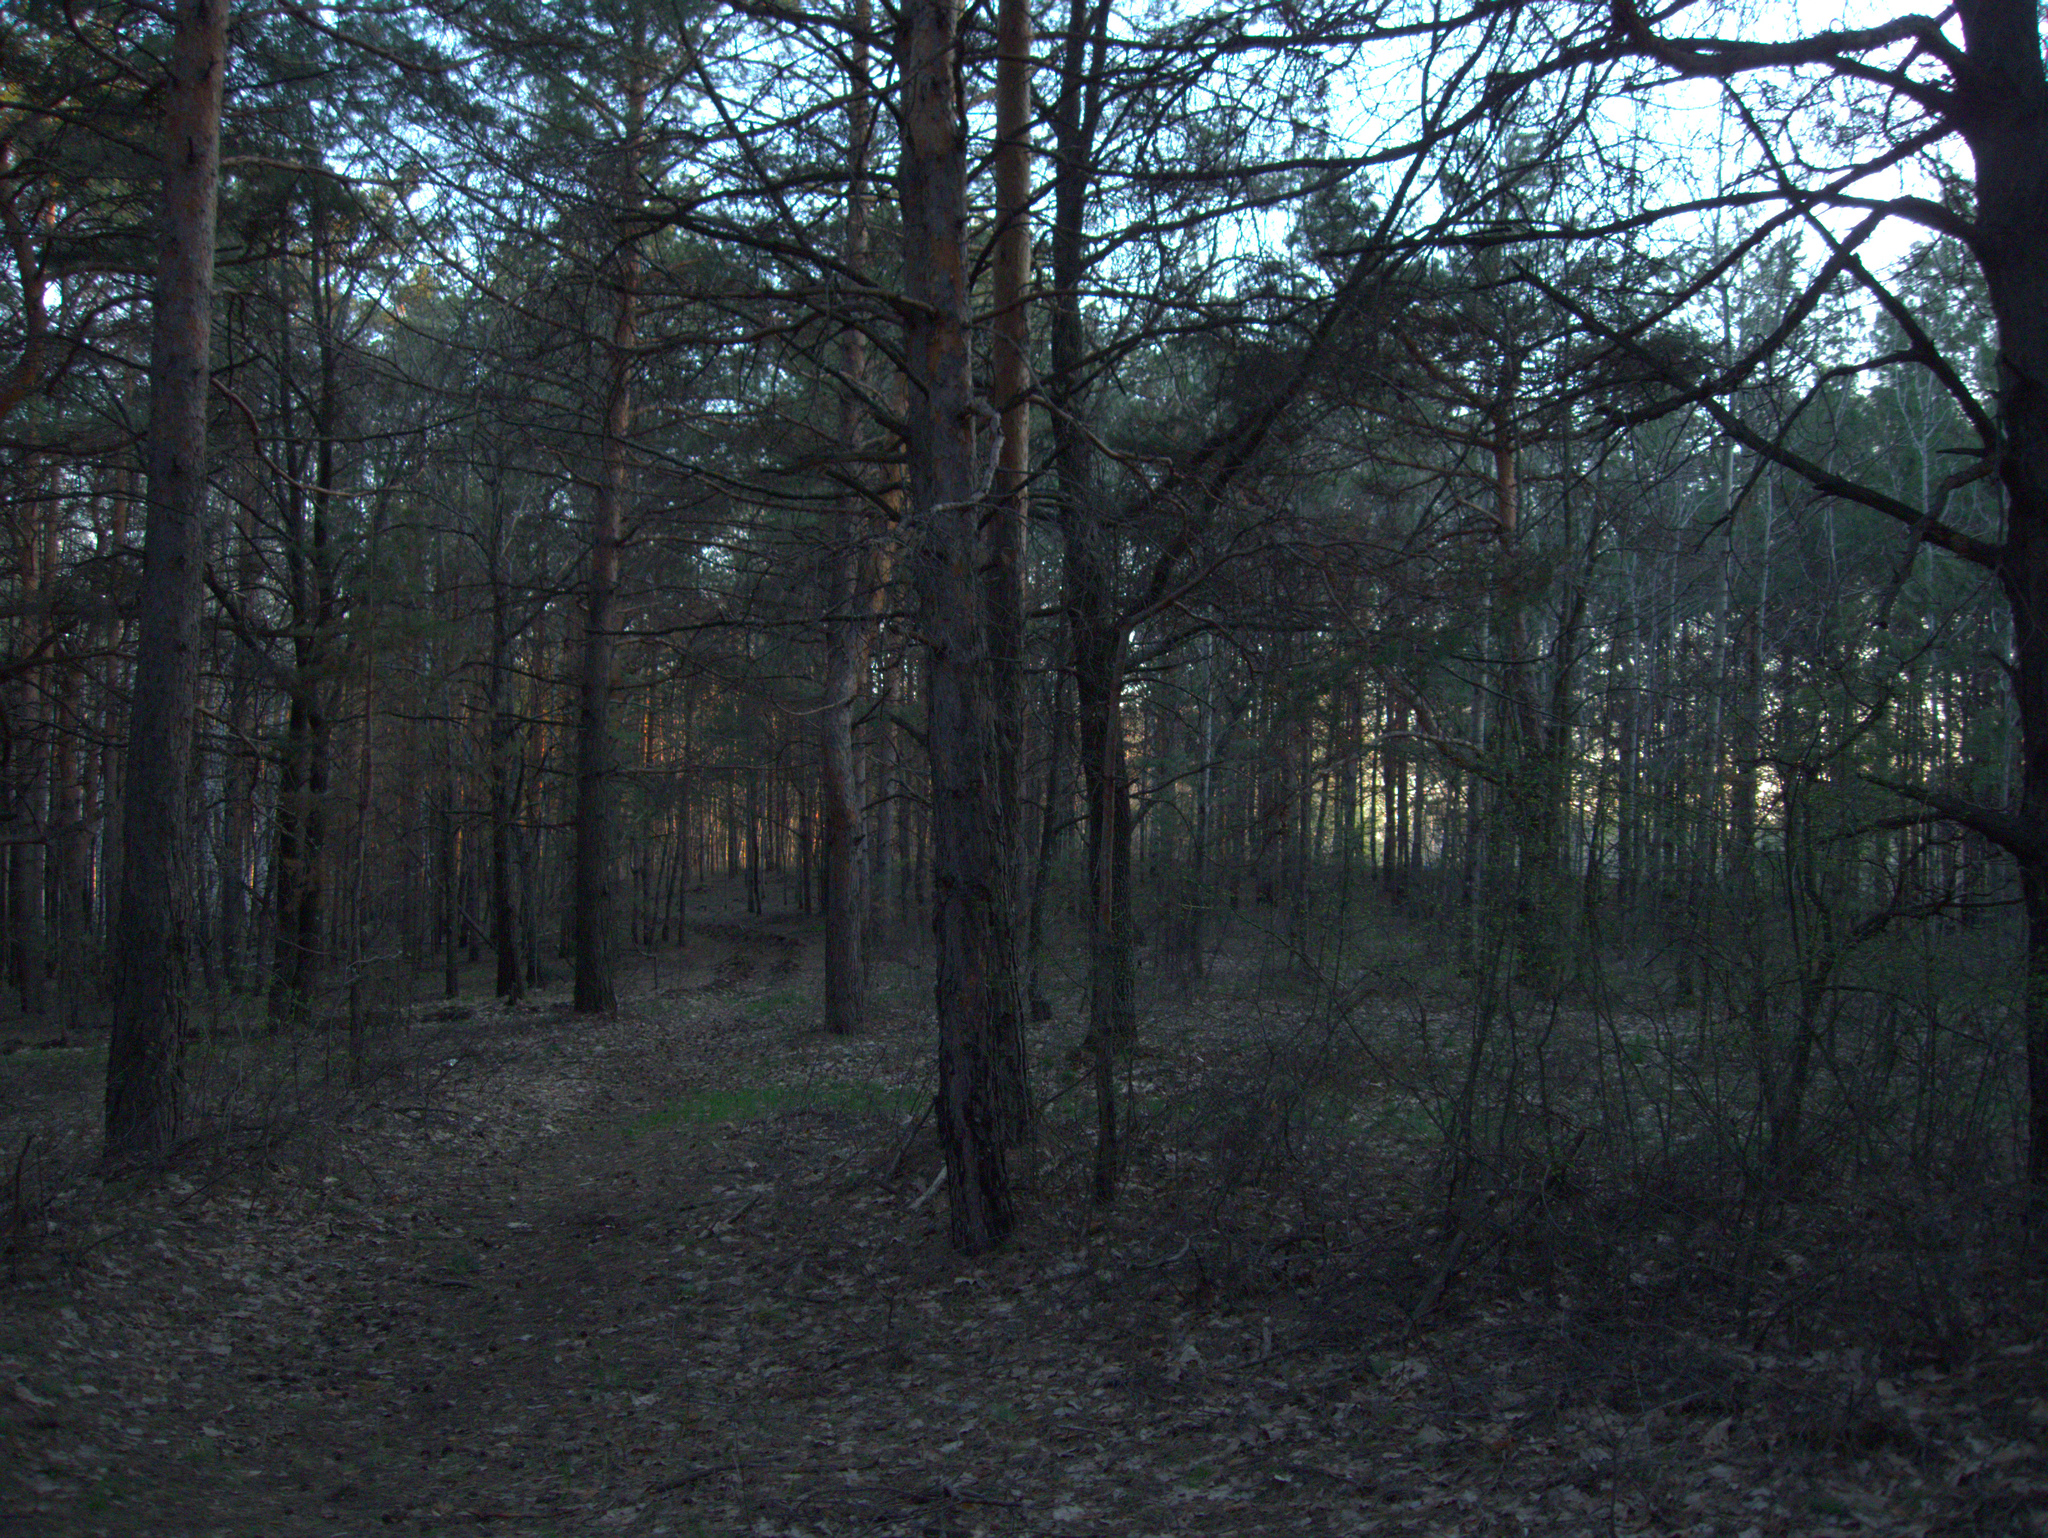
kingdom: Plantae
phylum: Tracheophyta
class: Pinopsida
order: Pinales
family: Pinaceae
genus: Pinus
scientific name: Pinus sylvestris
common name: Scots pine
